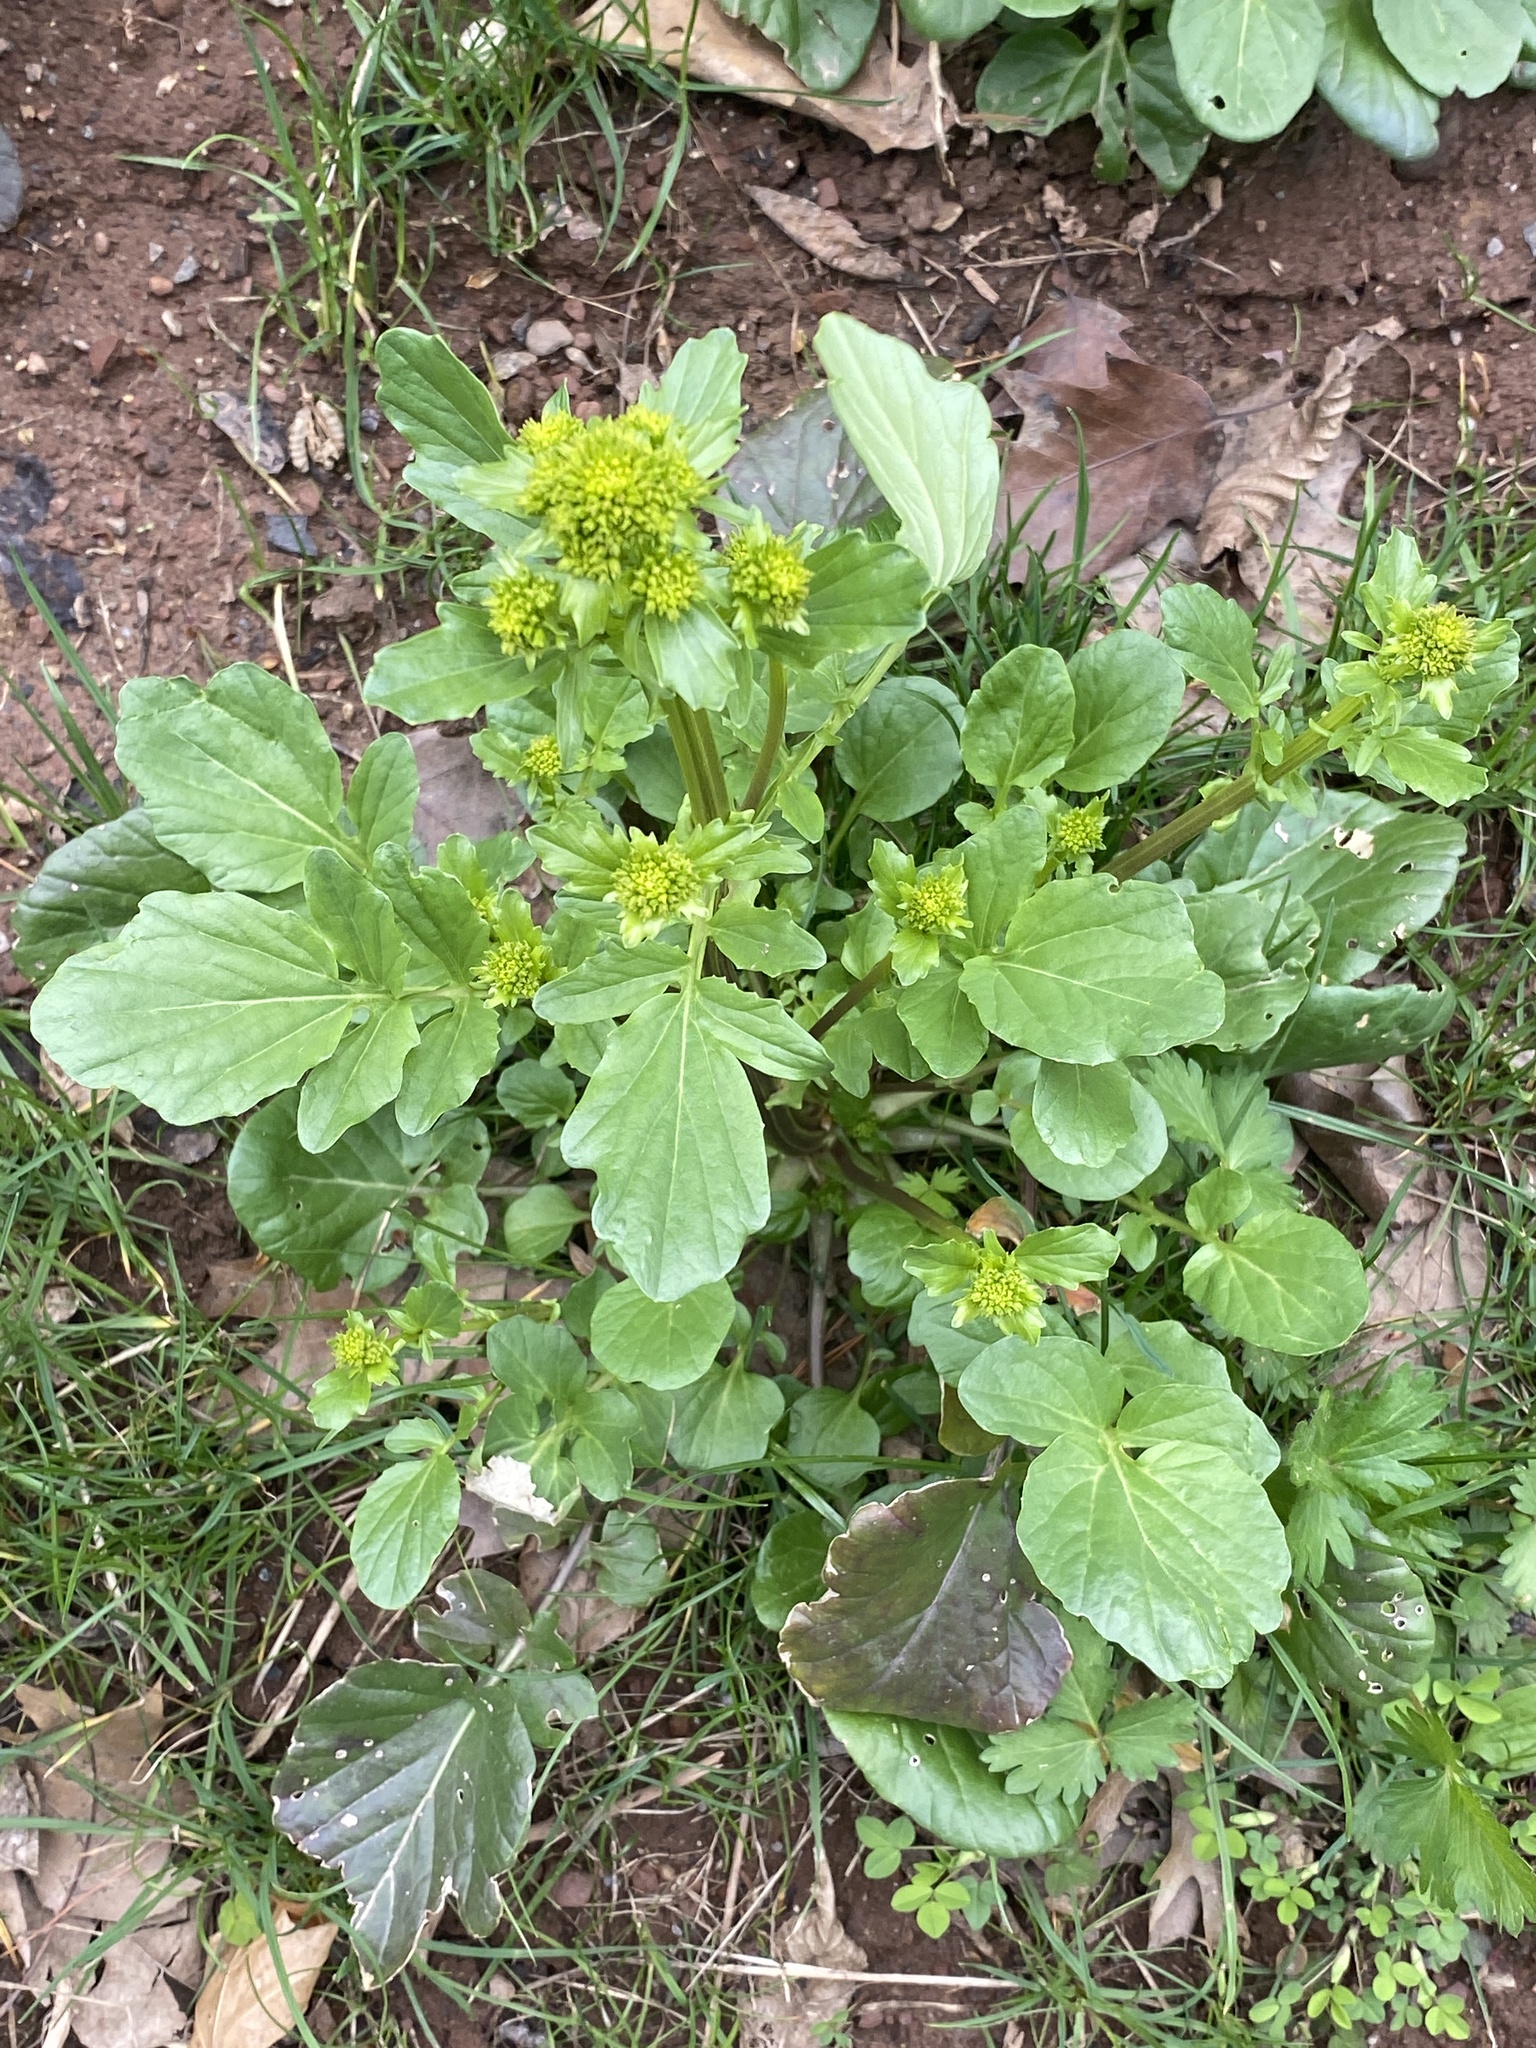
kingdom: Plantae
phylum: Tracheophyta
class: Magnoliopsida
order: Brassicales
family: Brassicaceae
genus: Barbarea
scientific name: Barbarea vulgaris
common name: Cressy-greens
